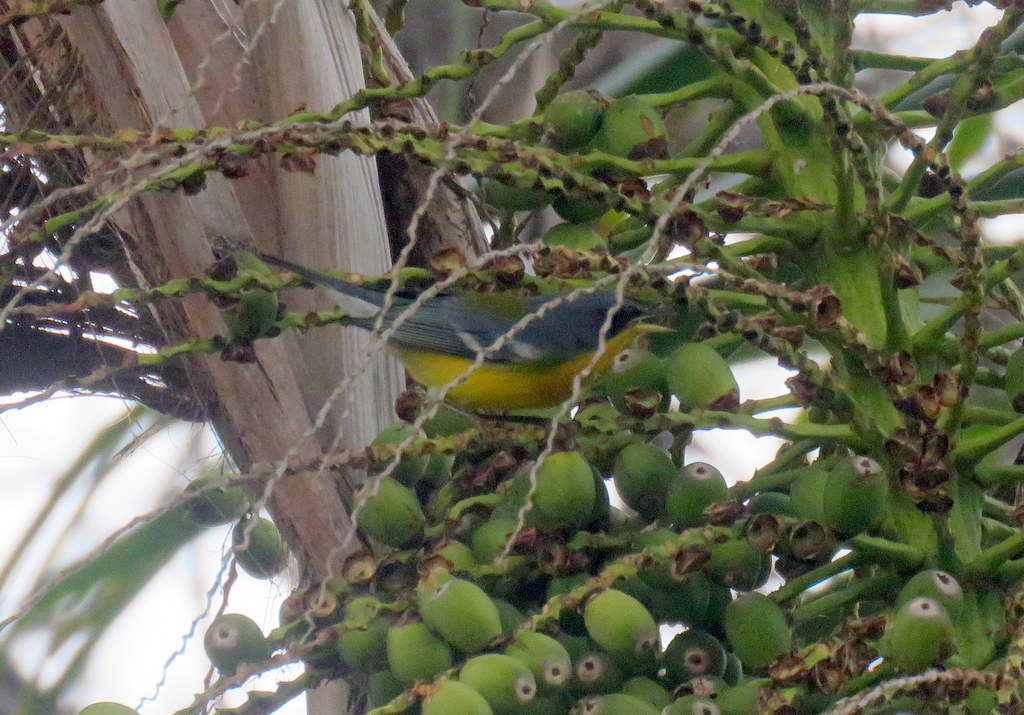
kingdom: Animalia
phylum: Chordata
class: Aves
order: Passeriformes
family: Parulidae
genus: Setophaga
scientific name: Setophaga pitiayumi
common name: Tropical parula
